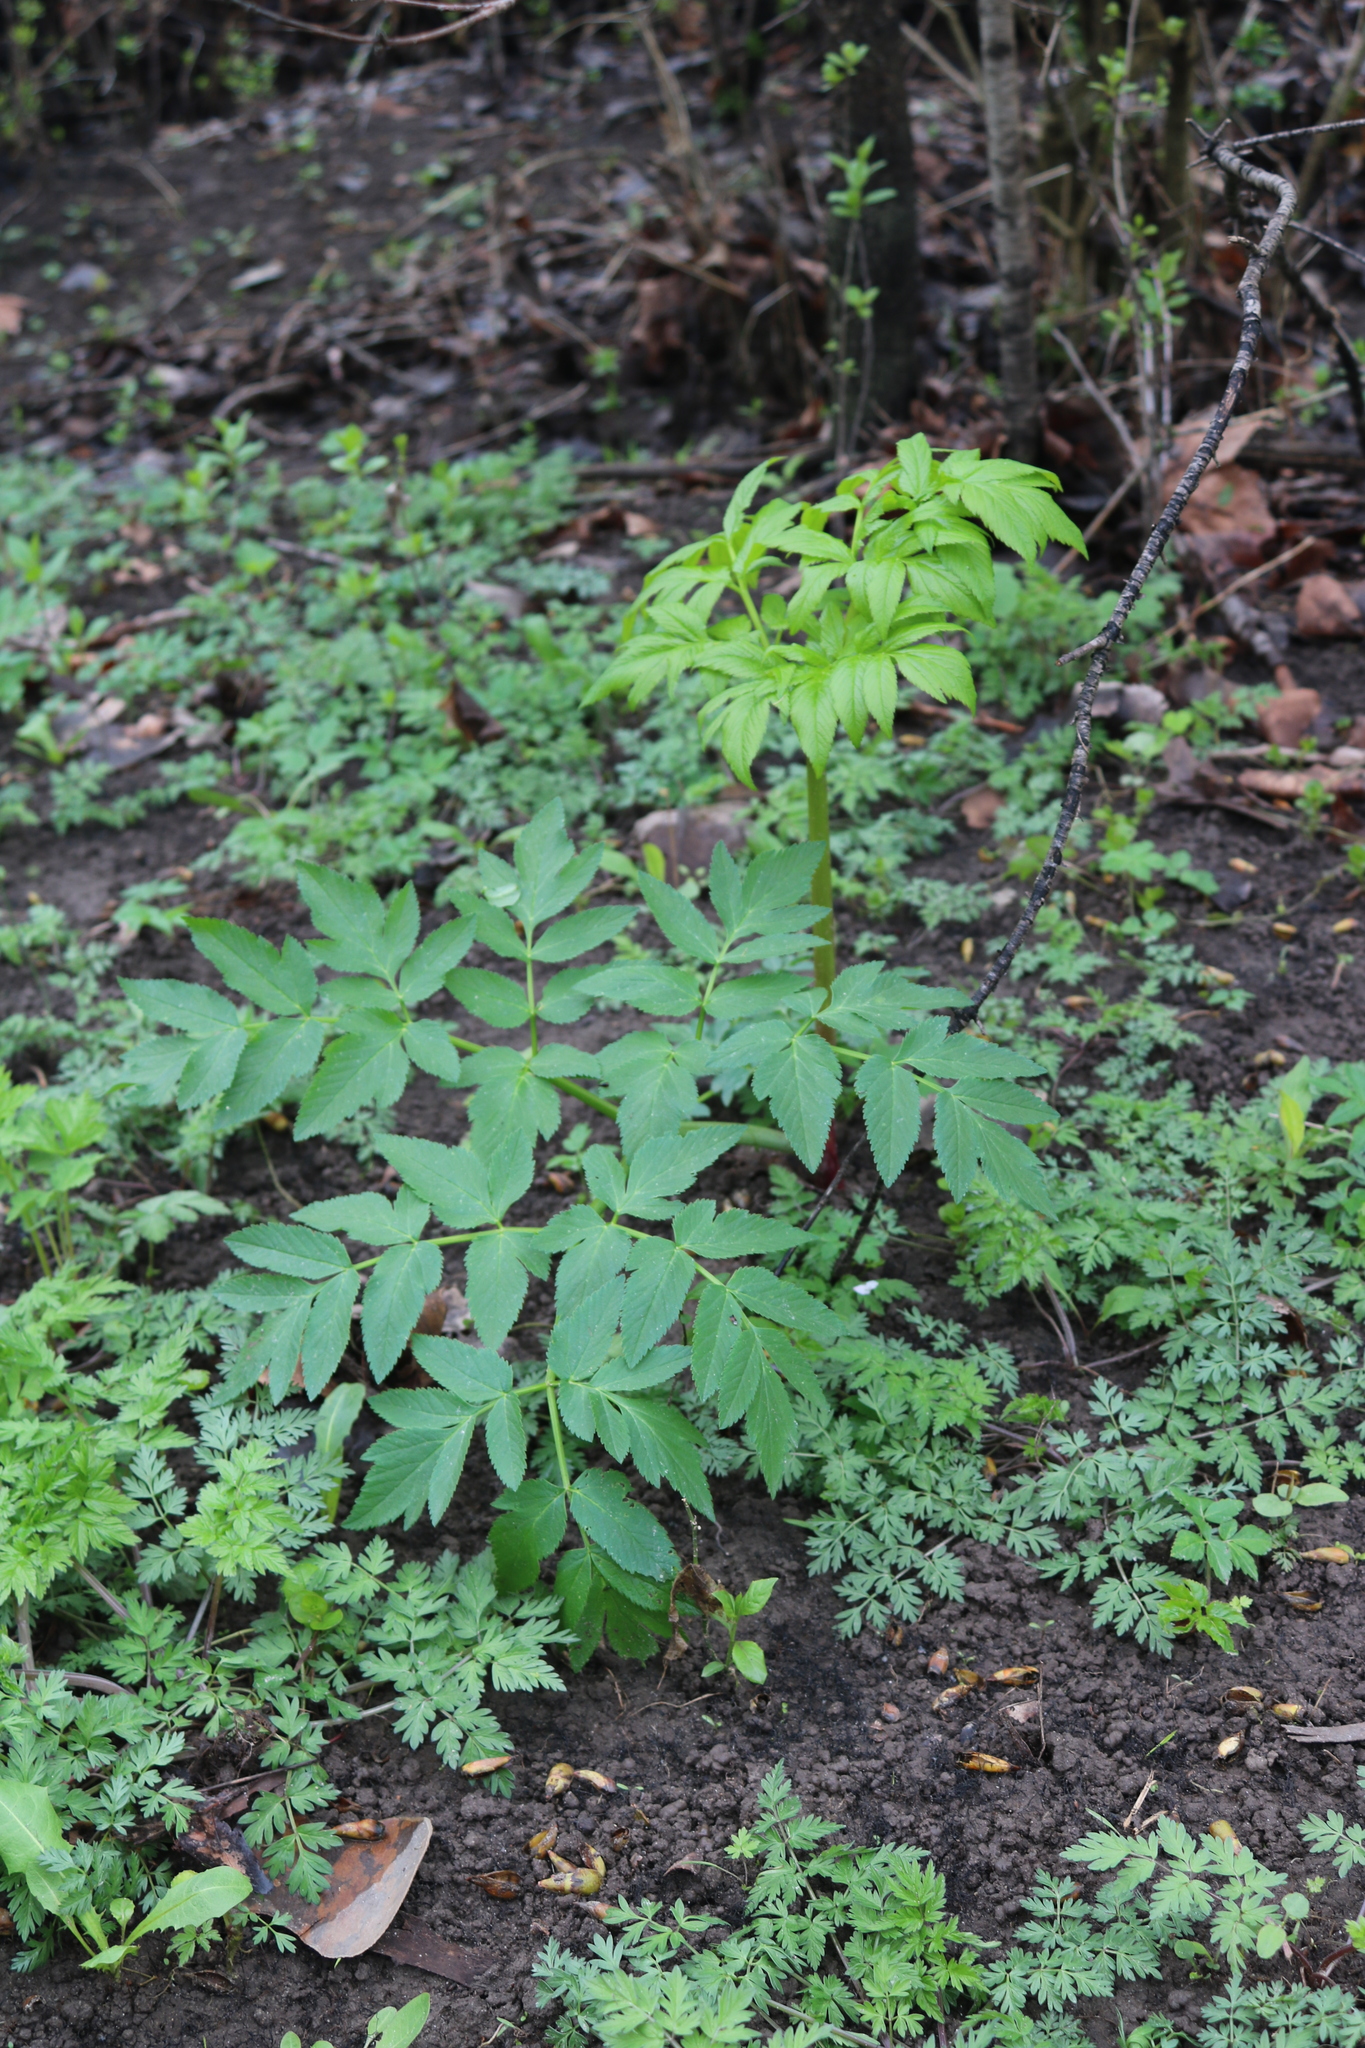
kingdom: Plantae
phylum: Tracheophyta
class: Magnoliopsida
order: Apiales
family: Apiaceae
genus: Angelica
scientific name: Angelica atropurpurea
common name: Great angelica
